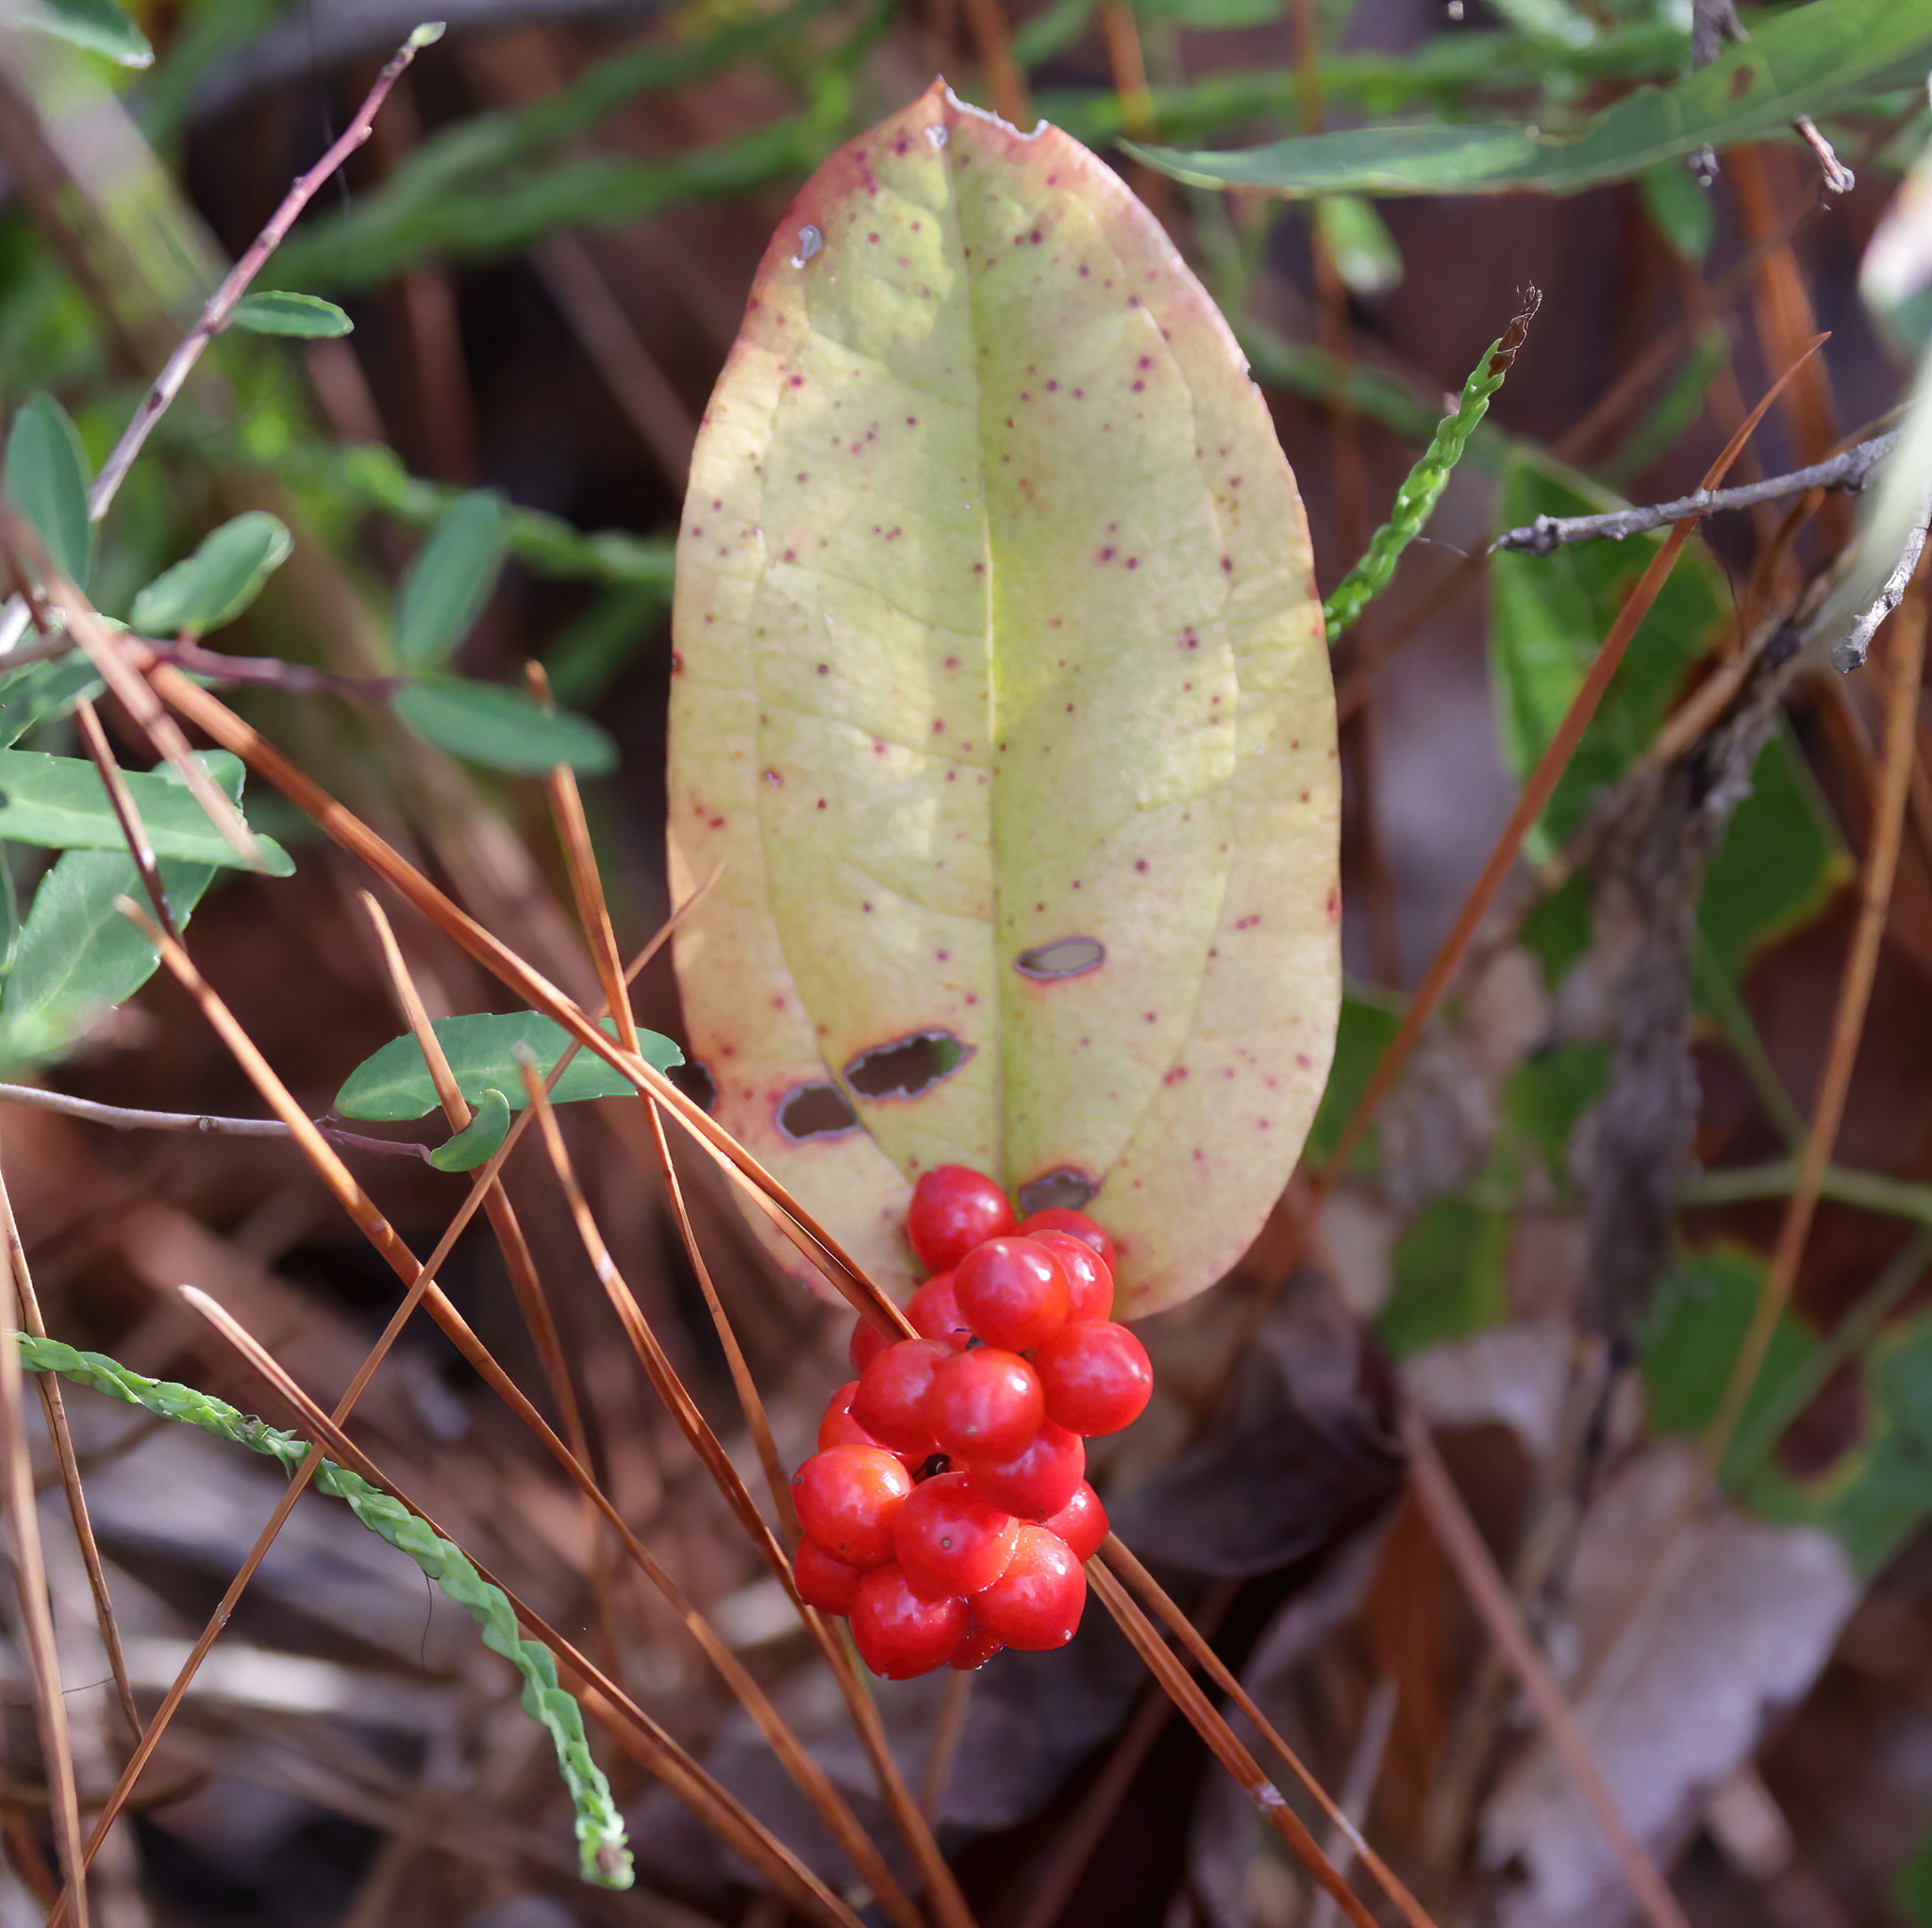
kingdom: Plantae
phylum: Tracheophyta
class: Liliopsida
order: Liliales
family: Smilacaceae
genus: Smilax
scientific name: Smilax pumila
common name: Sarsaparilla-vine
